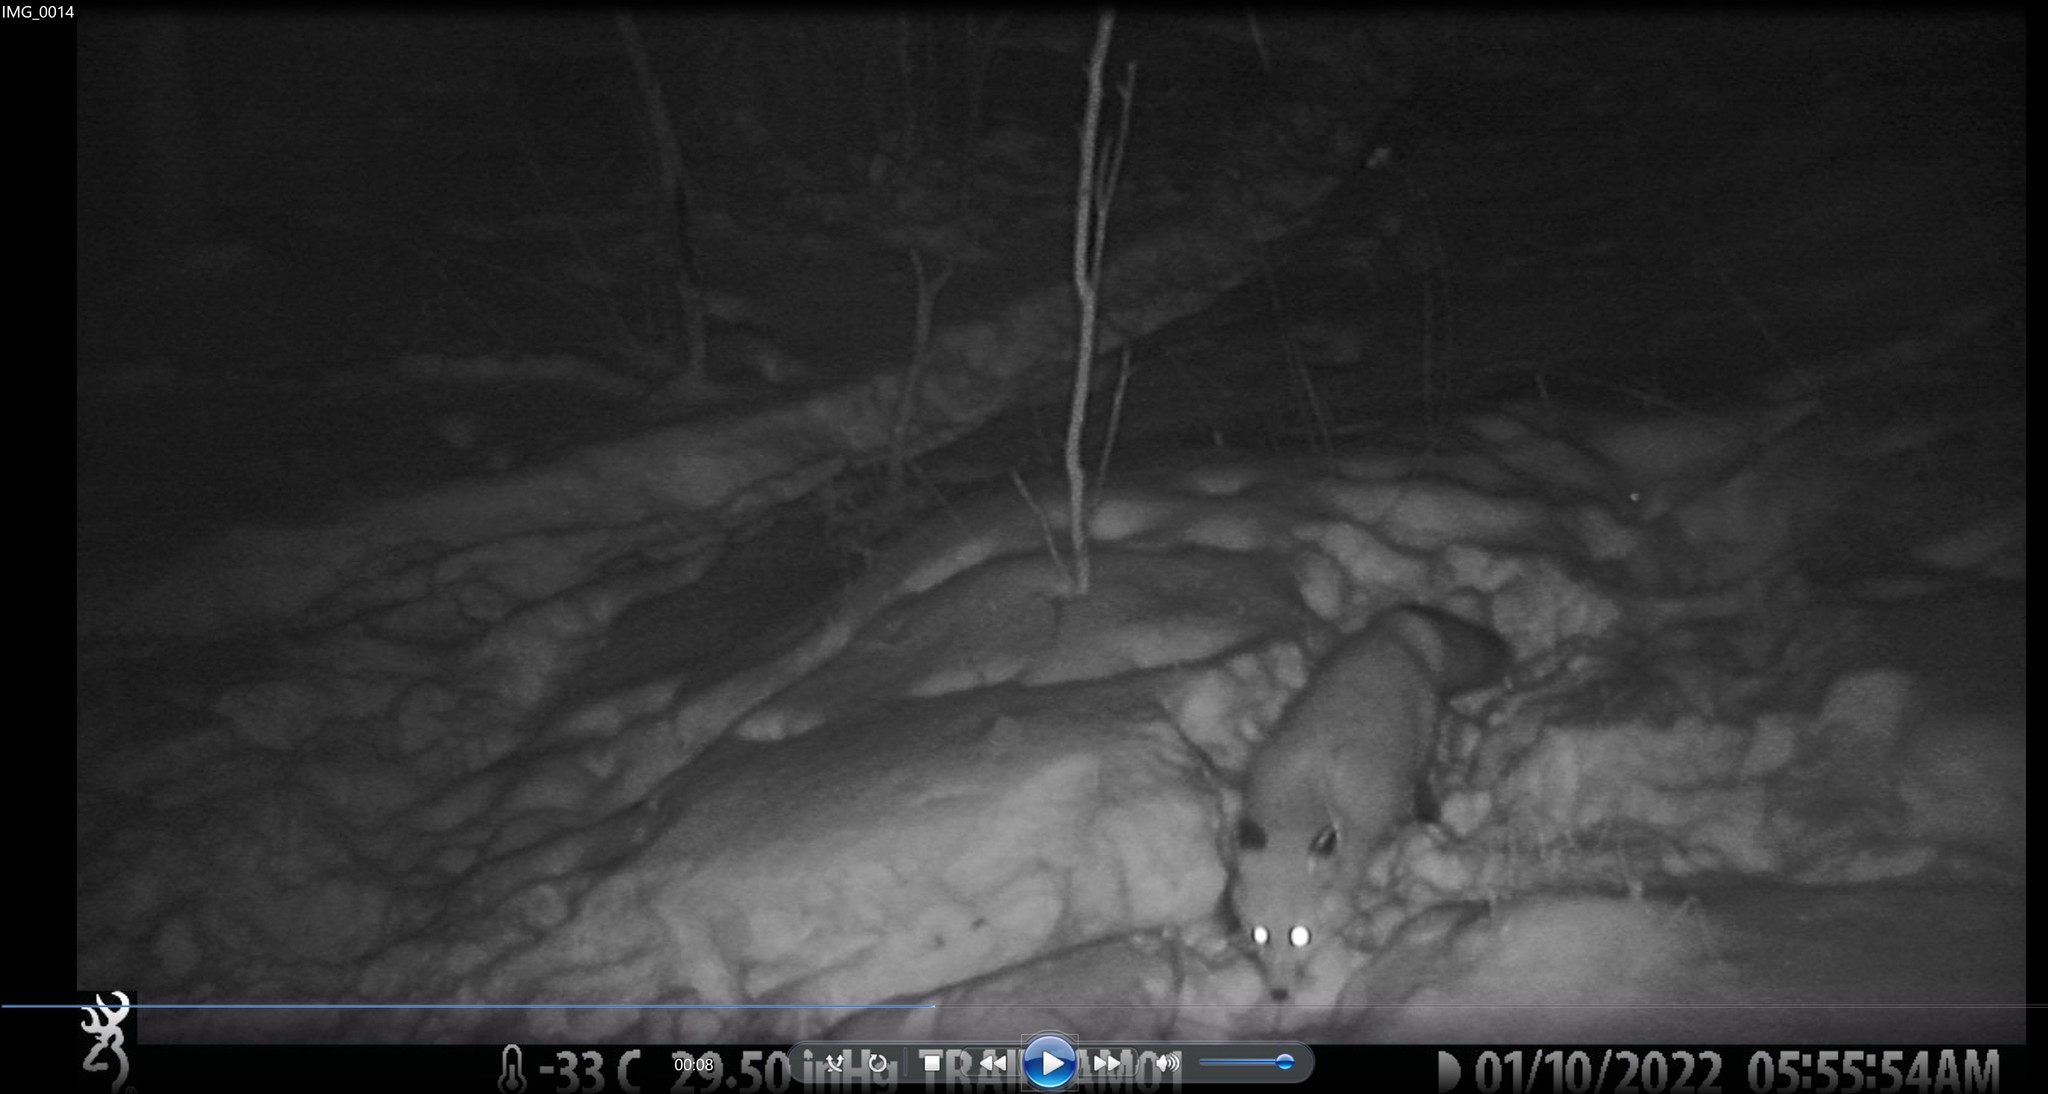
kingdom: Animalia
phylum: Chordata
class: Mammalia
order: Carnivora
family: Canidae
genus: Vulpes
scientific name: Vulpes vulpes
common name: Red fox
